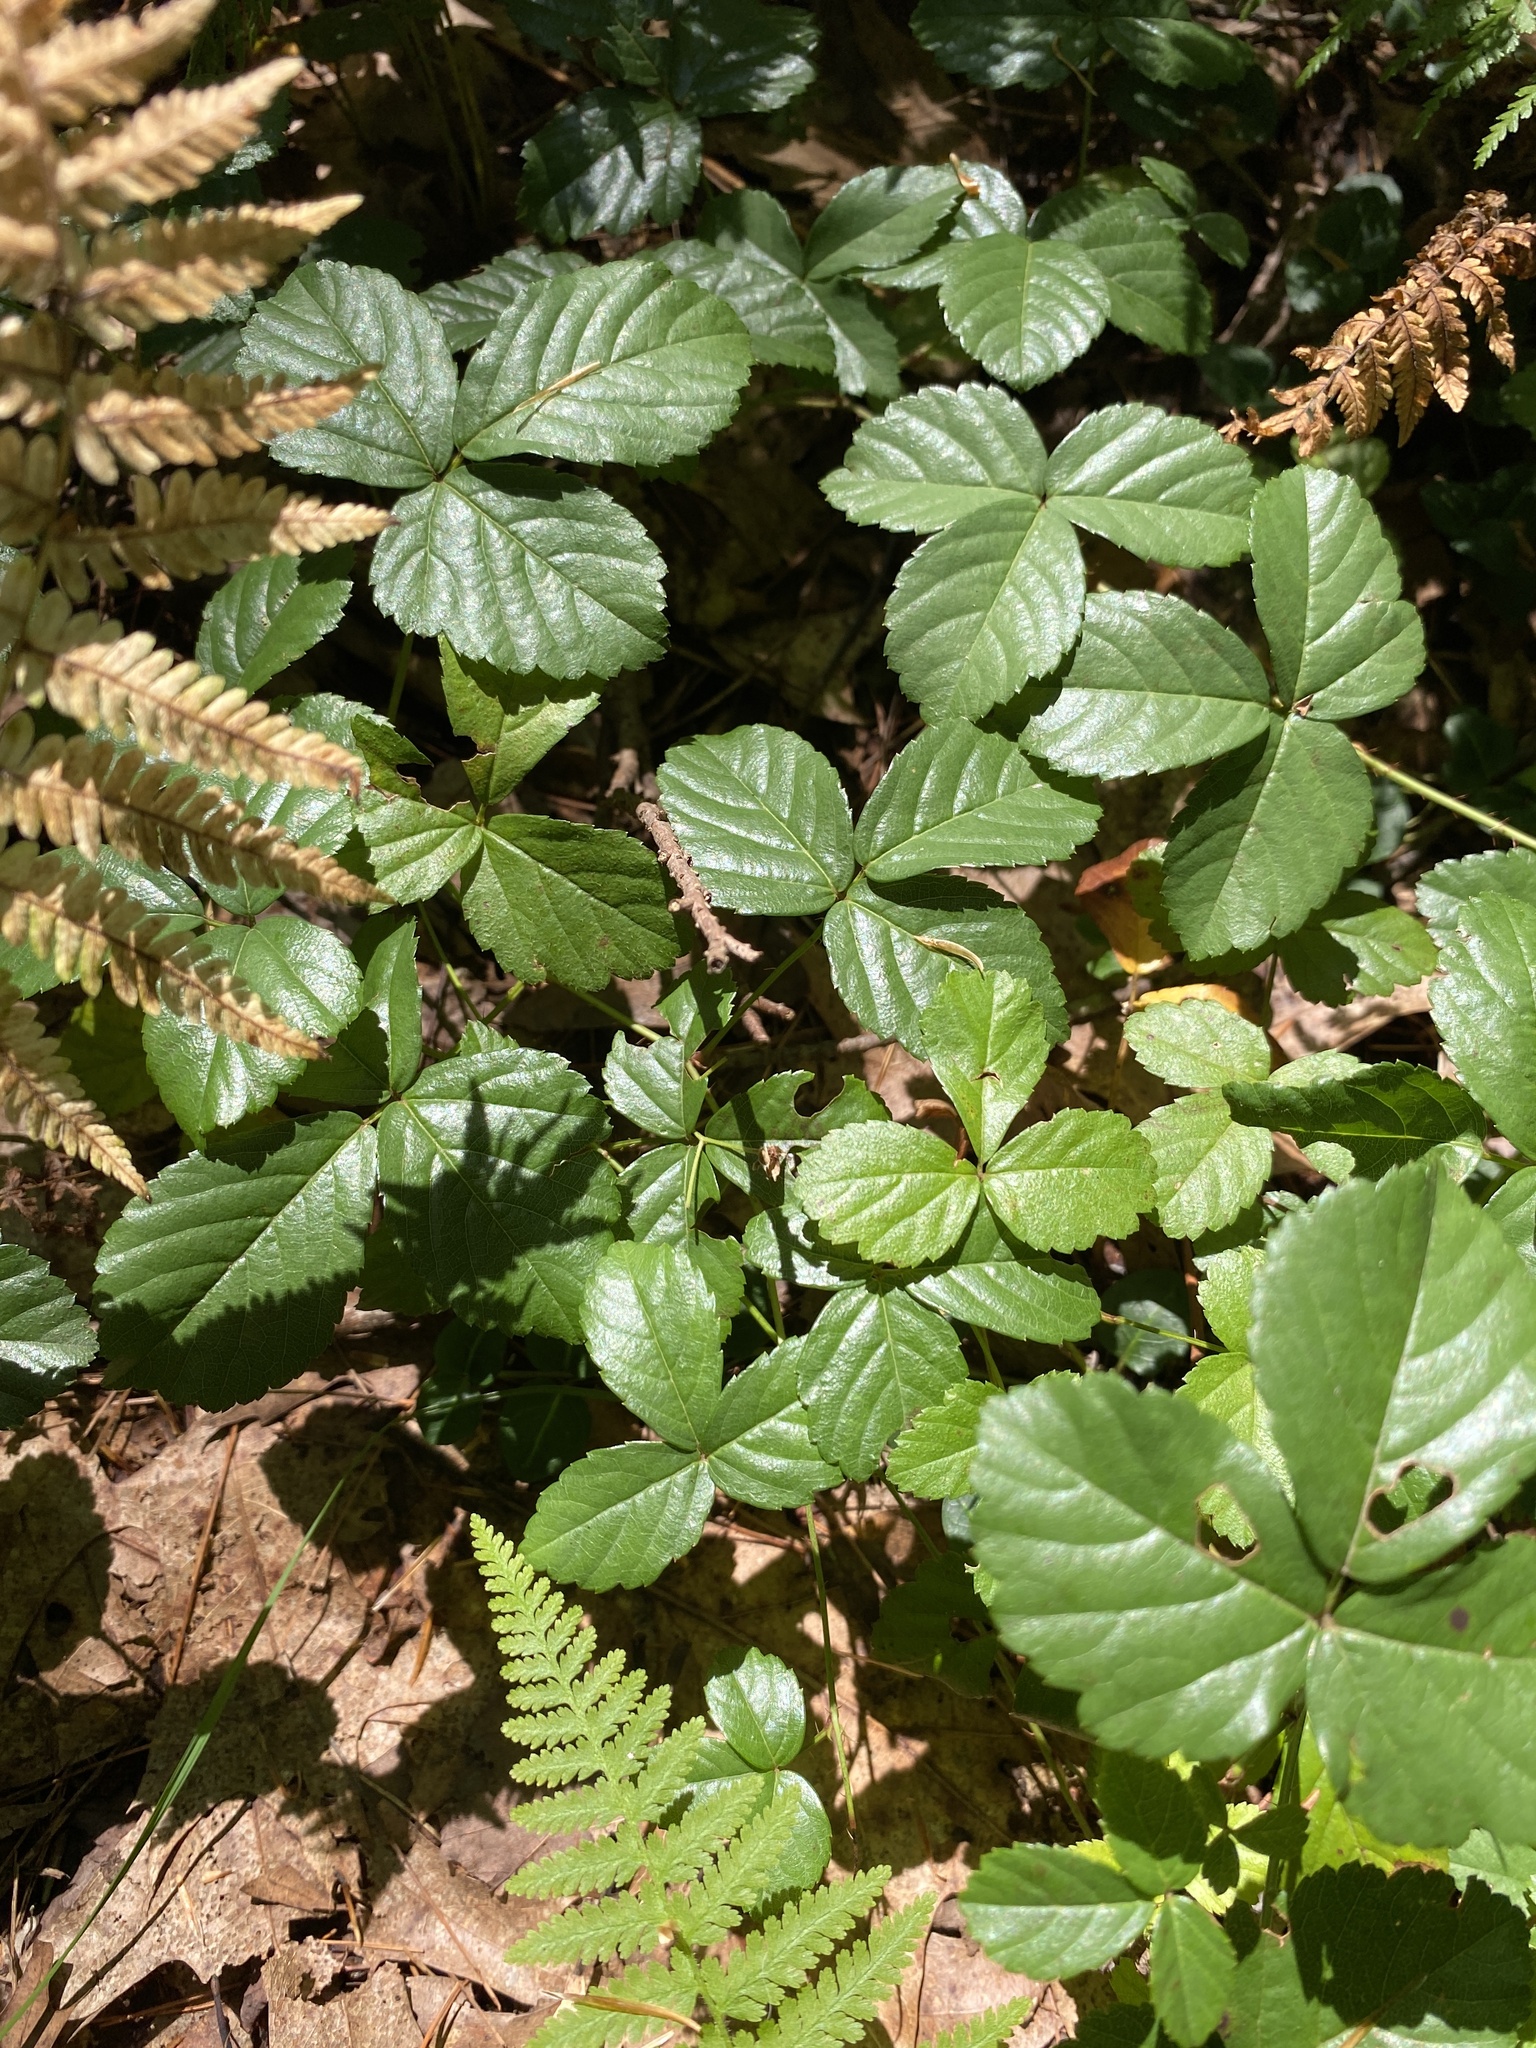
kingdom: Plantae
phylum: Tracheophyta
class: Magnoliopsida
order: Rosales
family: Rosaceae
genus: Rubus
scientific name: Rubus hispidus
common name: Running blackberry
